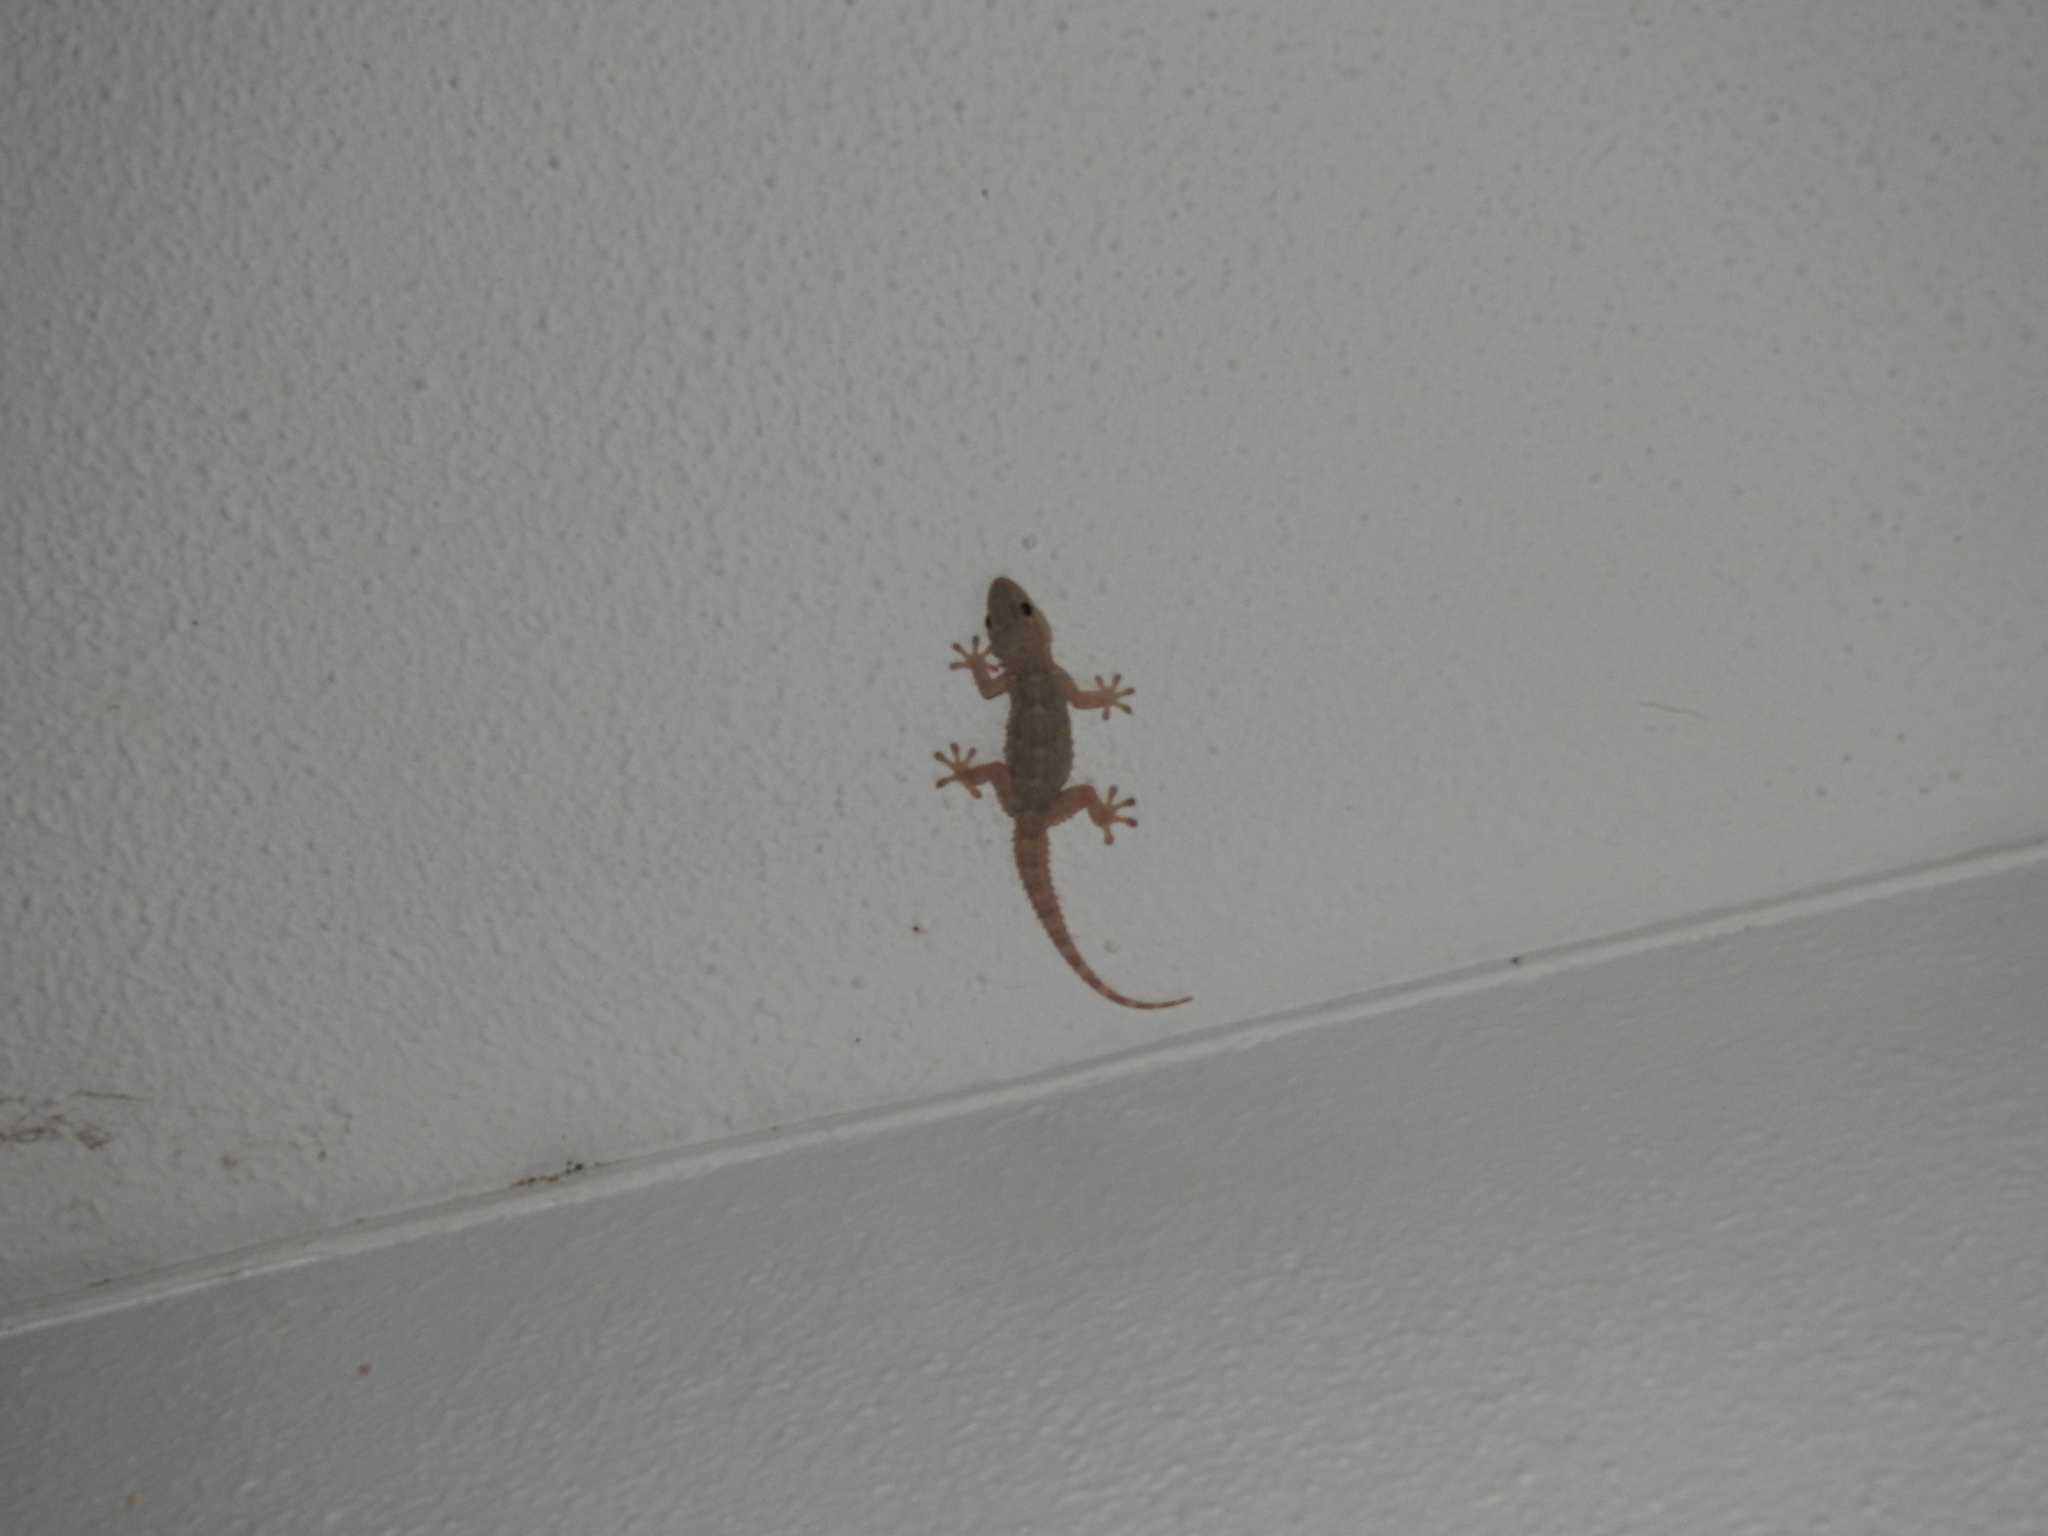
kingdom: Animalia
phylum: Chordata
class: Squamata
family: Phyllodactylidae
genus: Tarentola
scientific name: Tarentola mauritanica
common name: Moorish gecko
